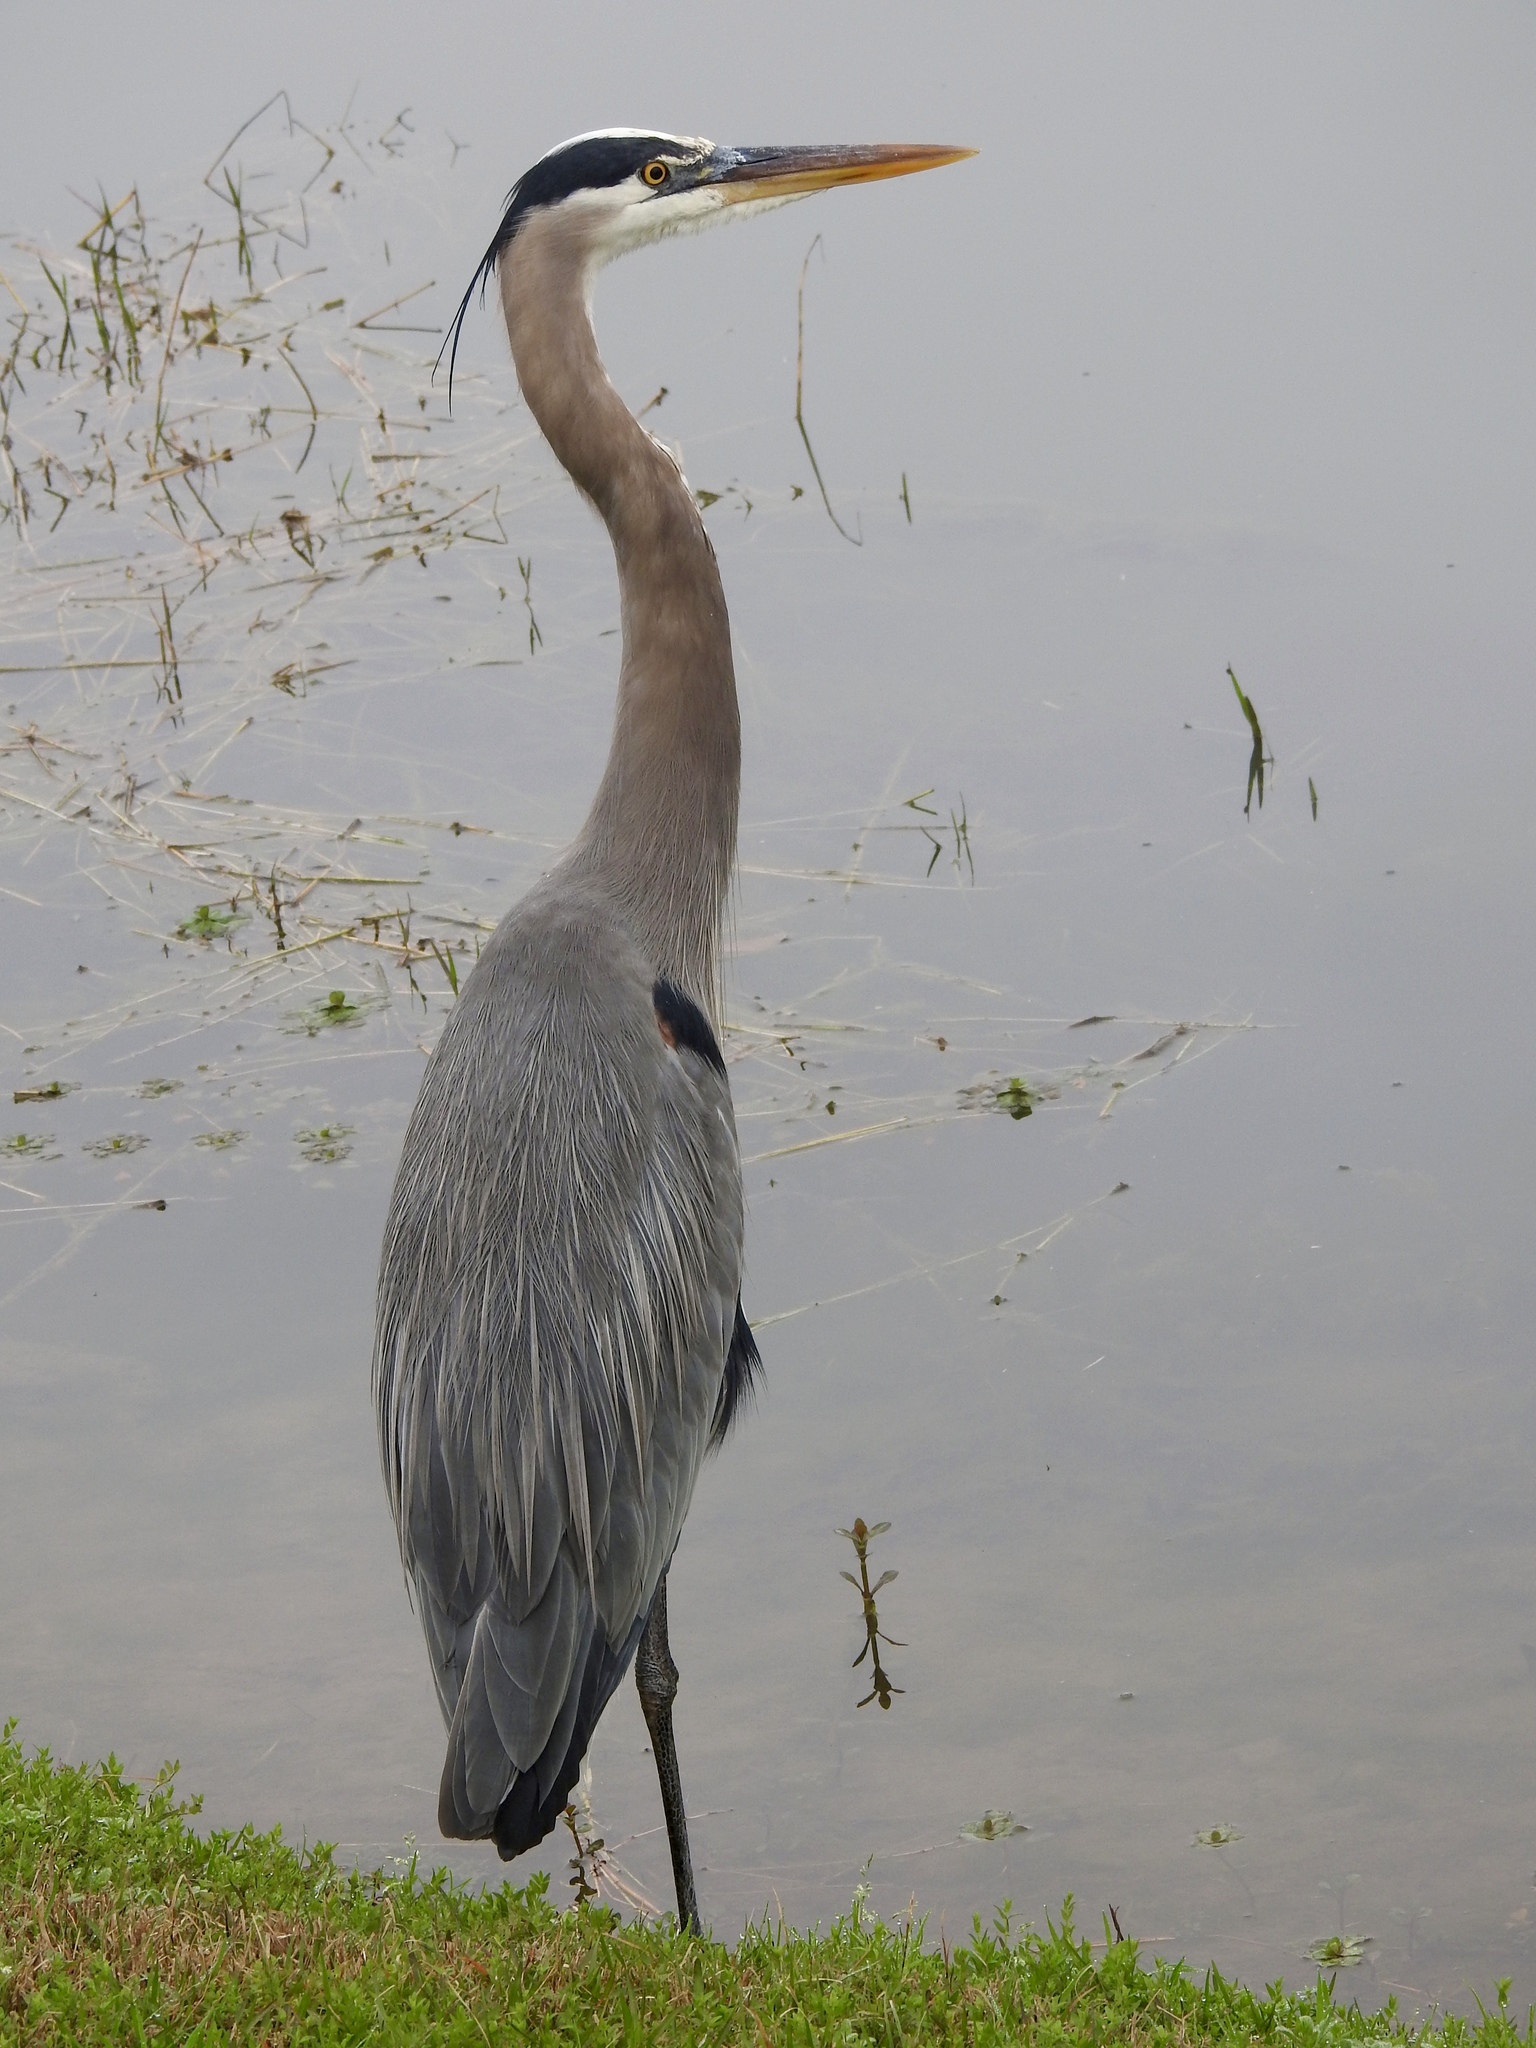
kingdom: Animalia
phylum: Chordata
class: Aves
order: Pelecaniformes
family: Ardeidae
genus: Ardea
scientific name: Ardea herodias
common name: Great blue heron
